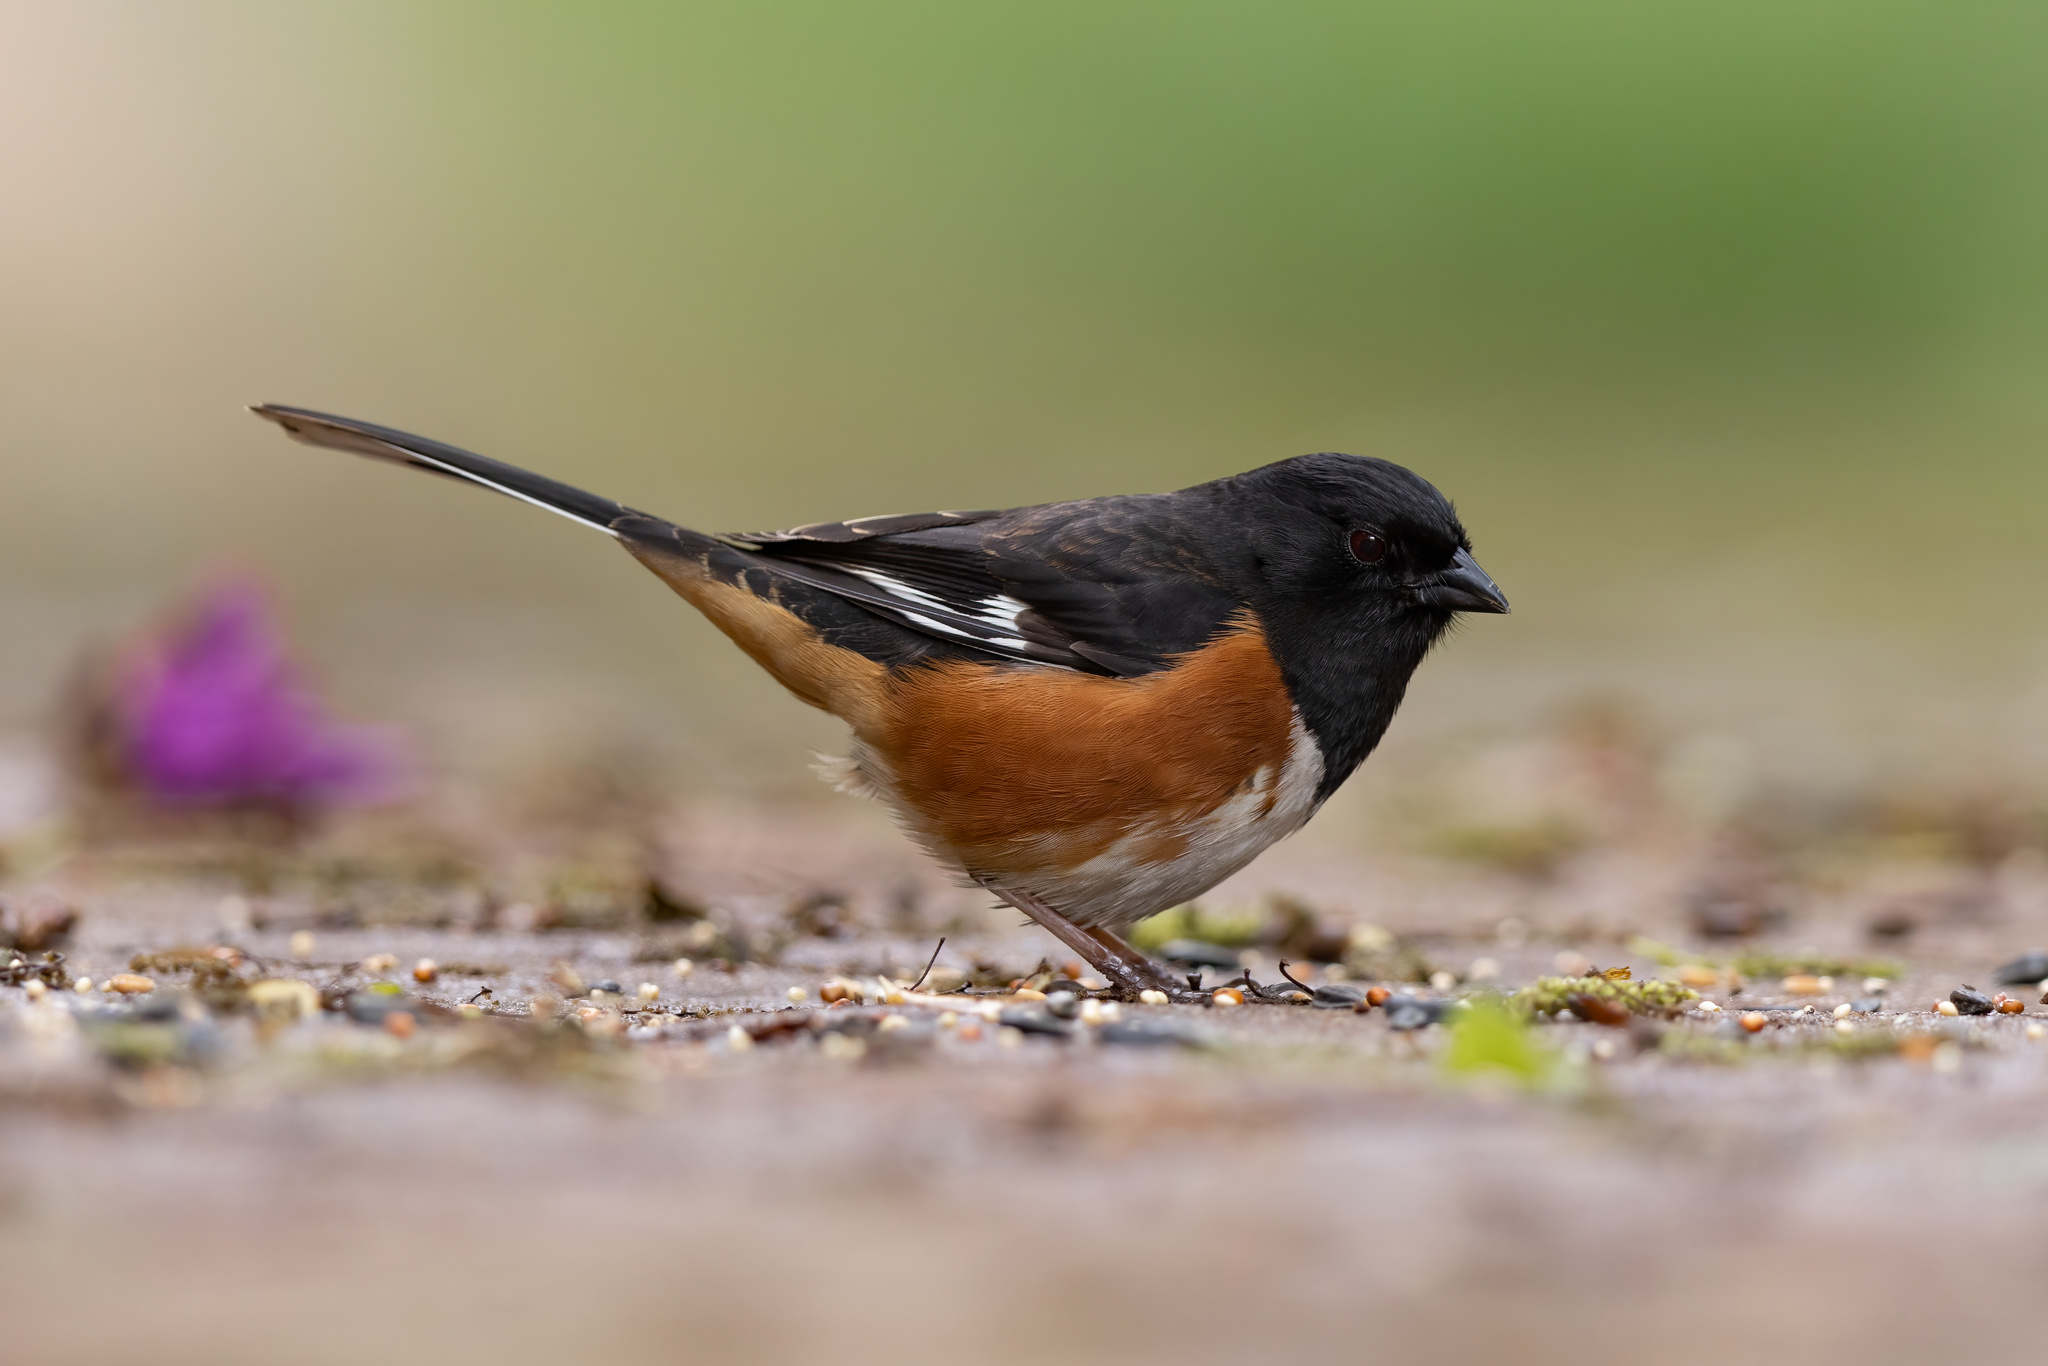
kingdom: Animalia
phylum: Chordata
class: Aves
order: Passeriformes
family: Passerellidae
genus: Pipilo
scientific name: Pipilo erythrophthalmus
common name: Eastern towhee
